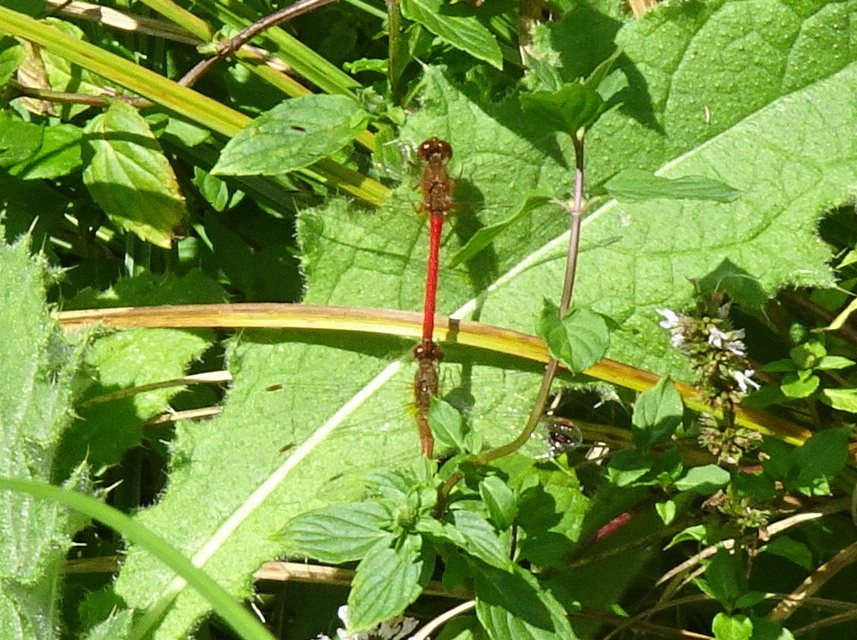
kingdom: Animalia
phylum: Arthropoda
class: Insecta
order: Odonata
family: Libellulidae
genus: Sympetrum
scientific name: Sympetrum vicinum
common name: Autumn meadowhawk
